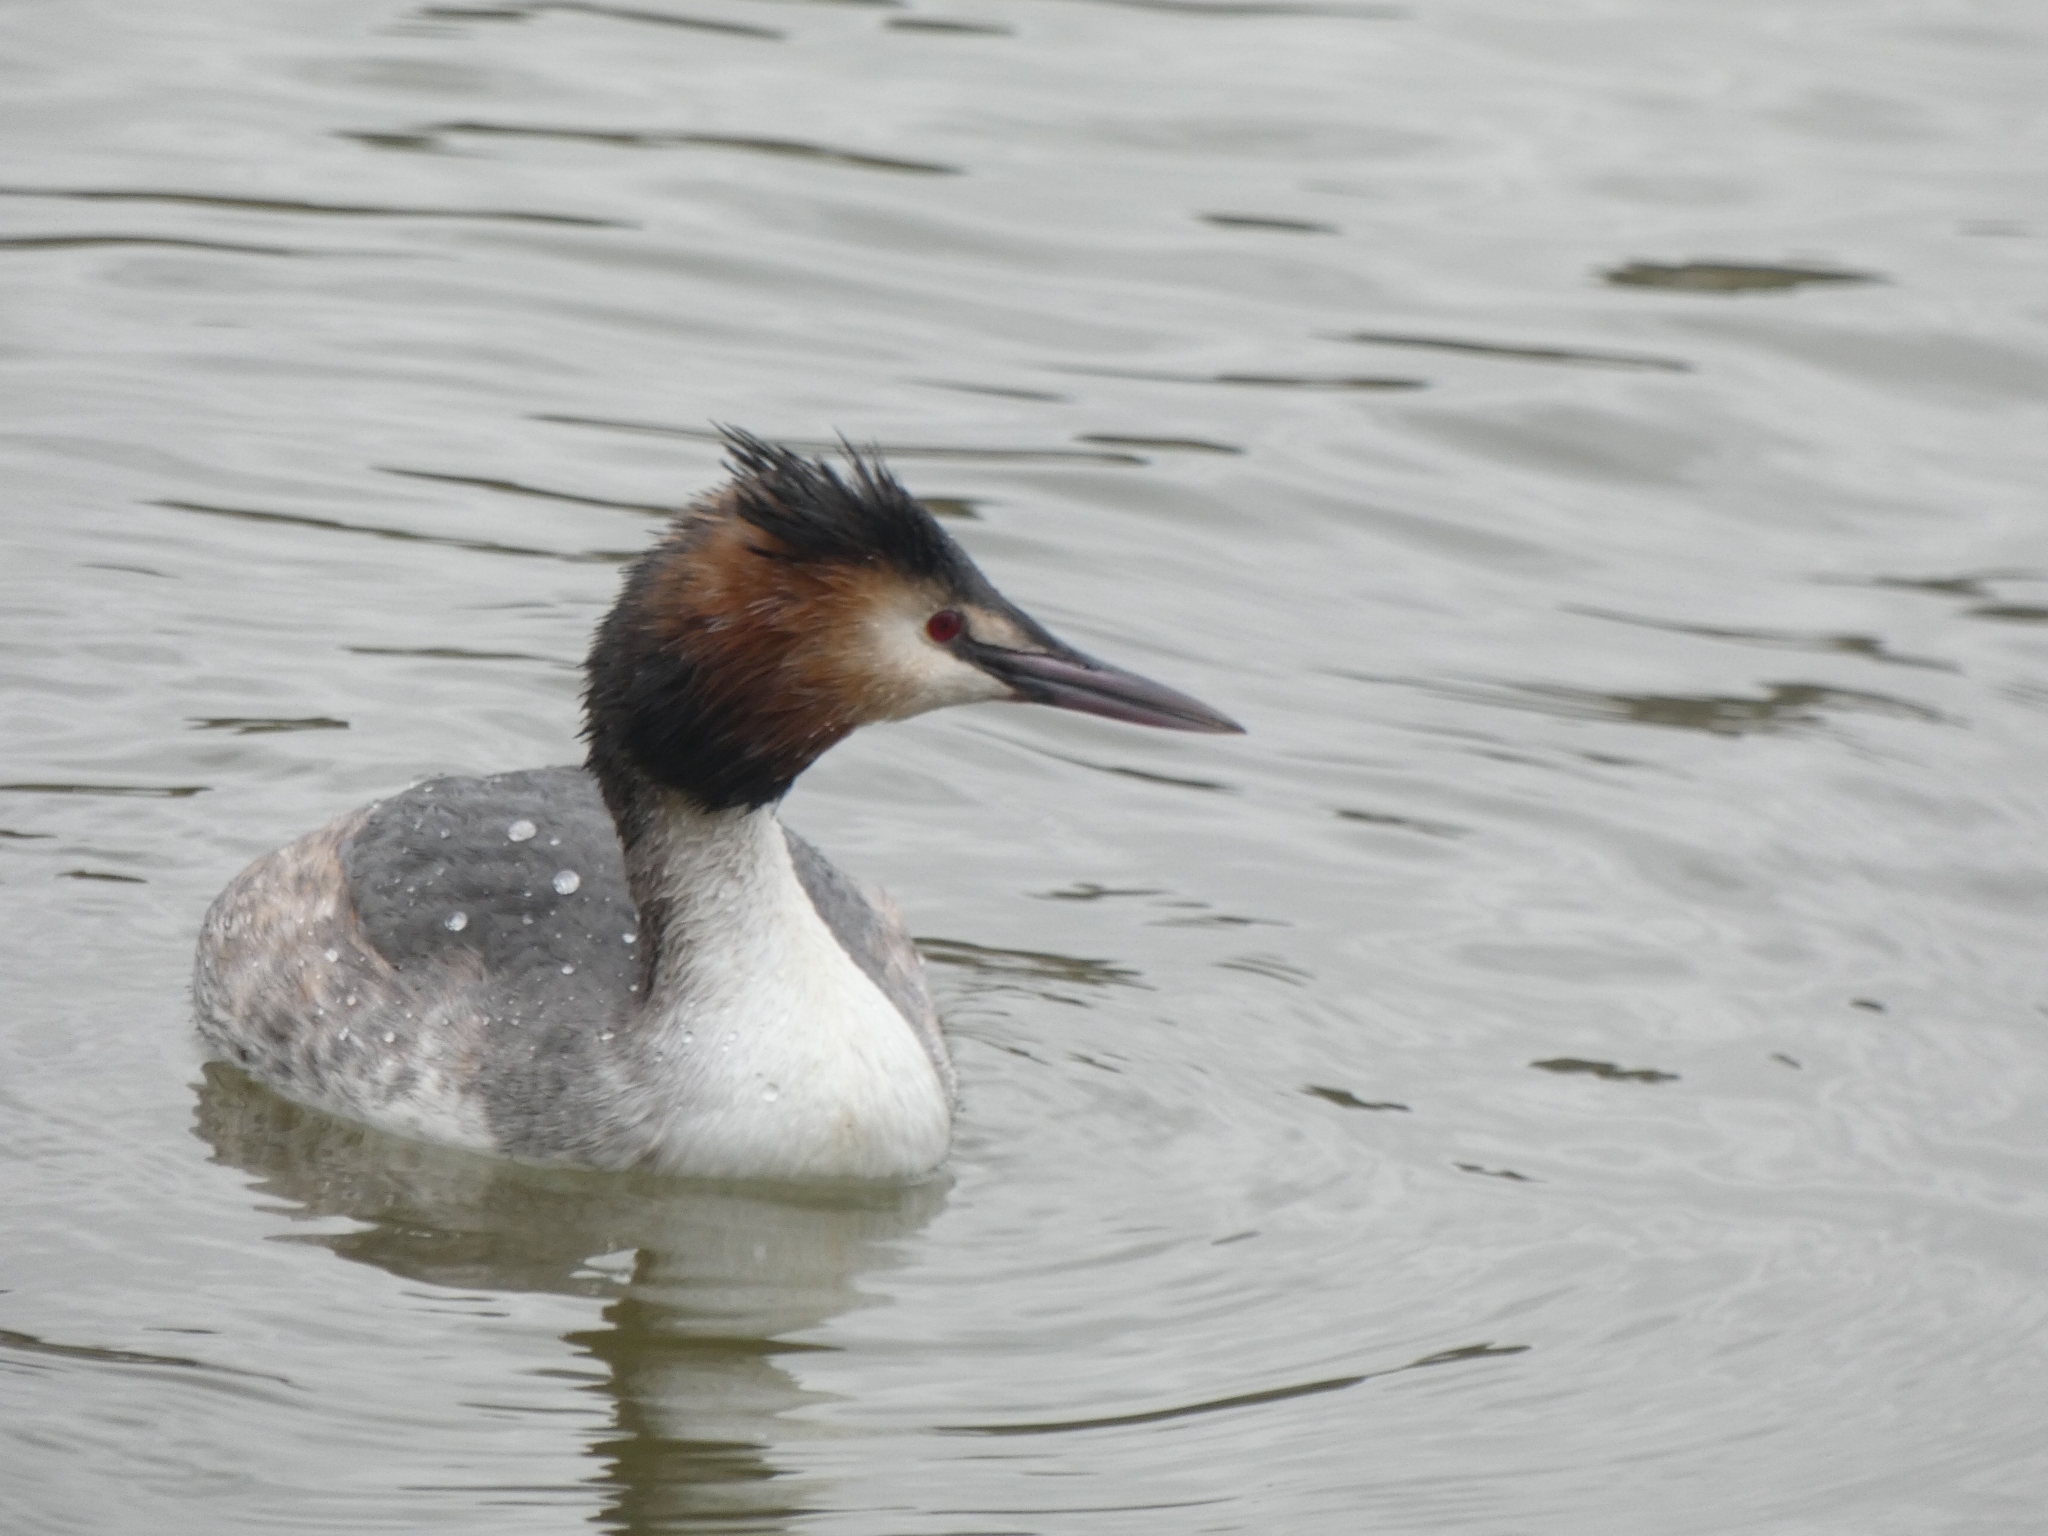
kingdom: Animalia
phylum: Chordata
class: Aves
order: Podicipediformes
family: Podicipedidae
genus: Podiceps
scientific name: Podiceps cristatus
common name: Great crested grebe
